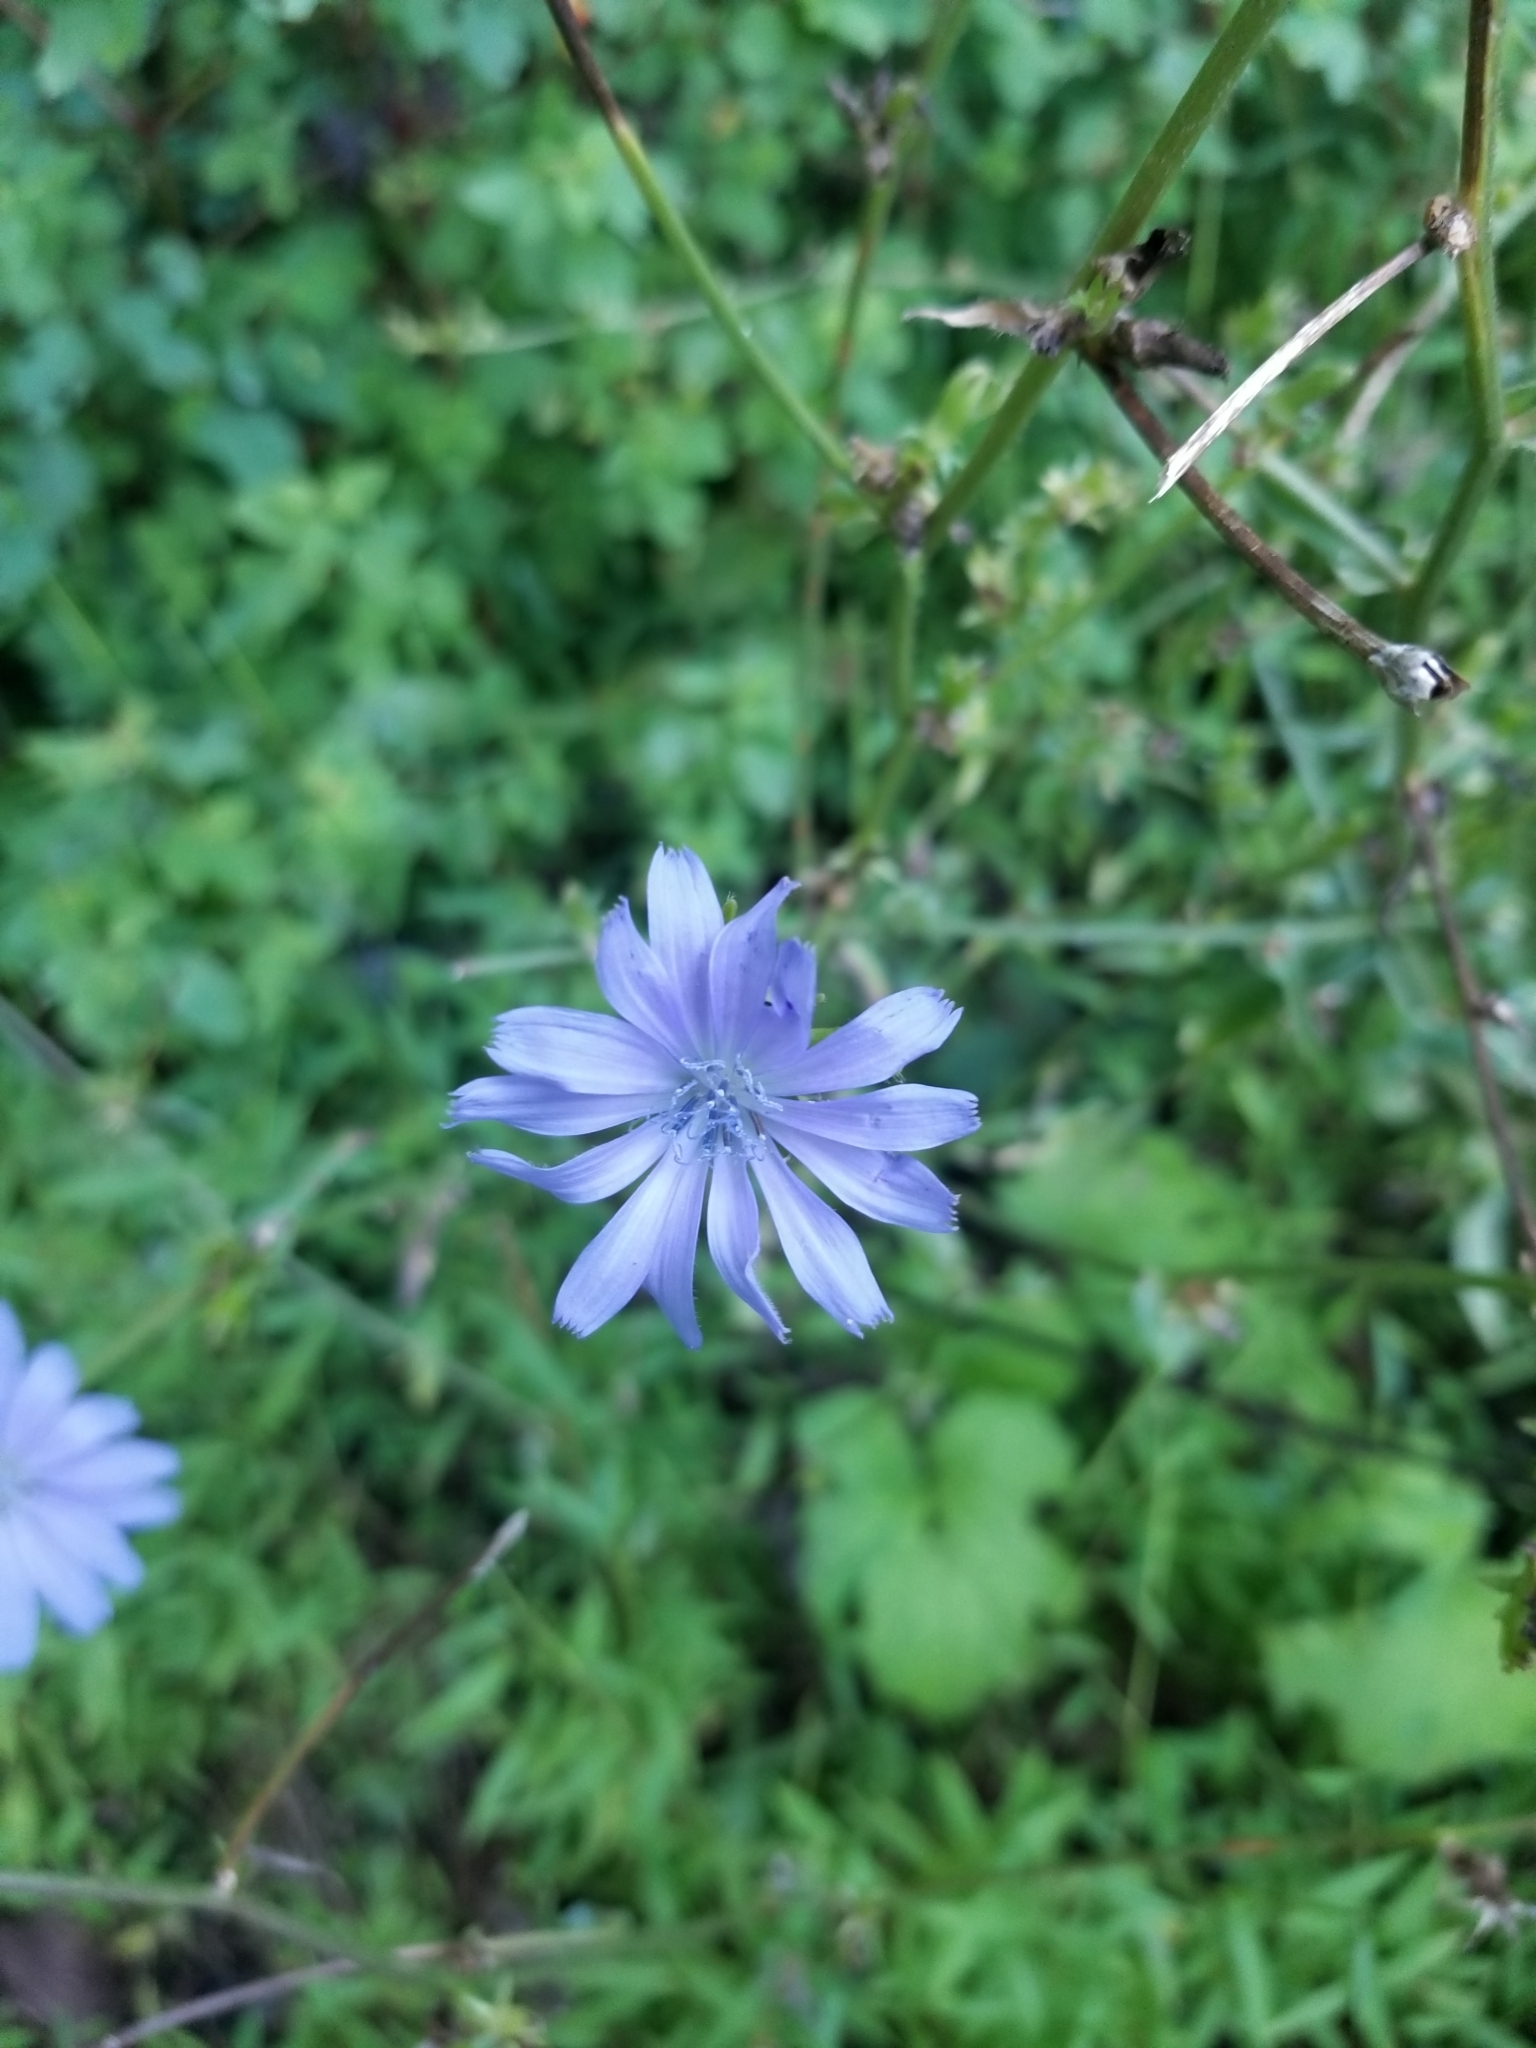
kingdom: Plantae
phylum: Tracheophyta
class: Magnoliopsida
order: Asterales
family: Asteraceae
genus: Cichorium
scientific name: Cichorium intybus
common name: Chicory
